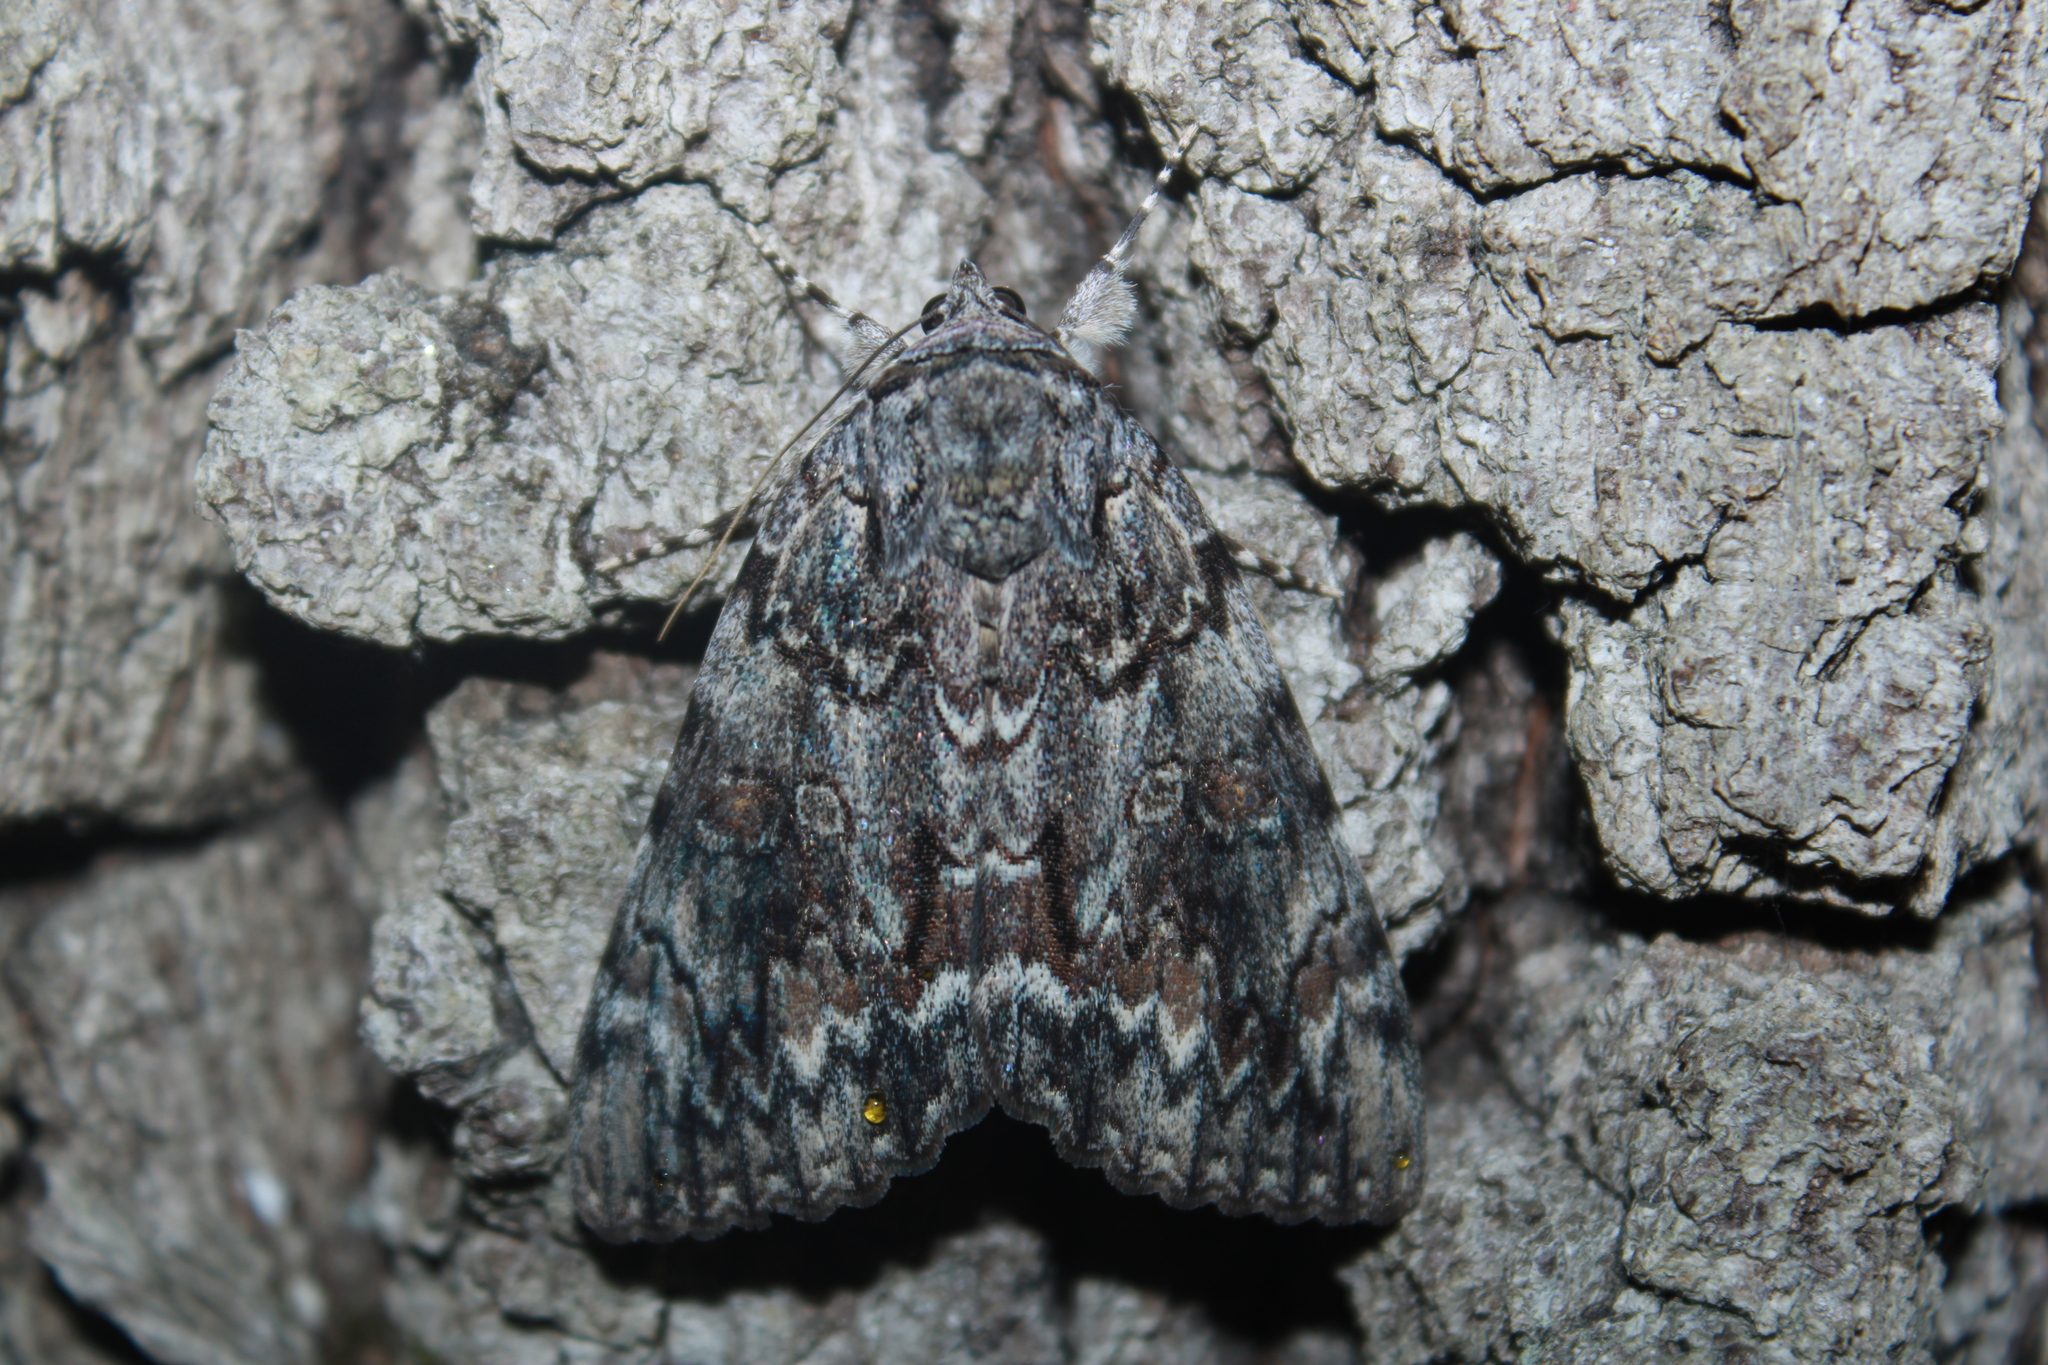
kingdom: Animalia
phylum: Arthropoda
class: Insecta
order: Lepidoptera
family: Erebidae
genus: Catocala
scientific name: Catocala palaeogama
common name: Oldwife underwing
